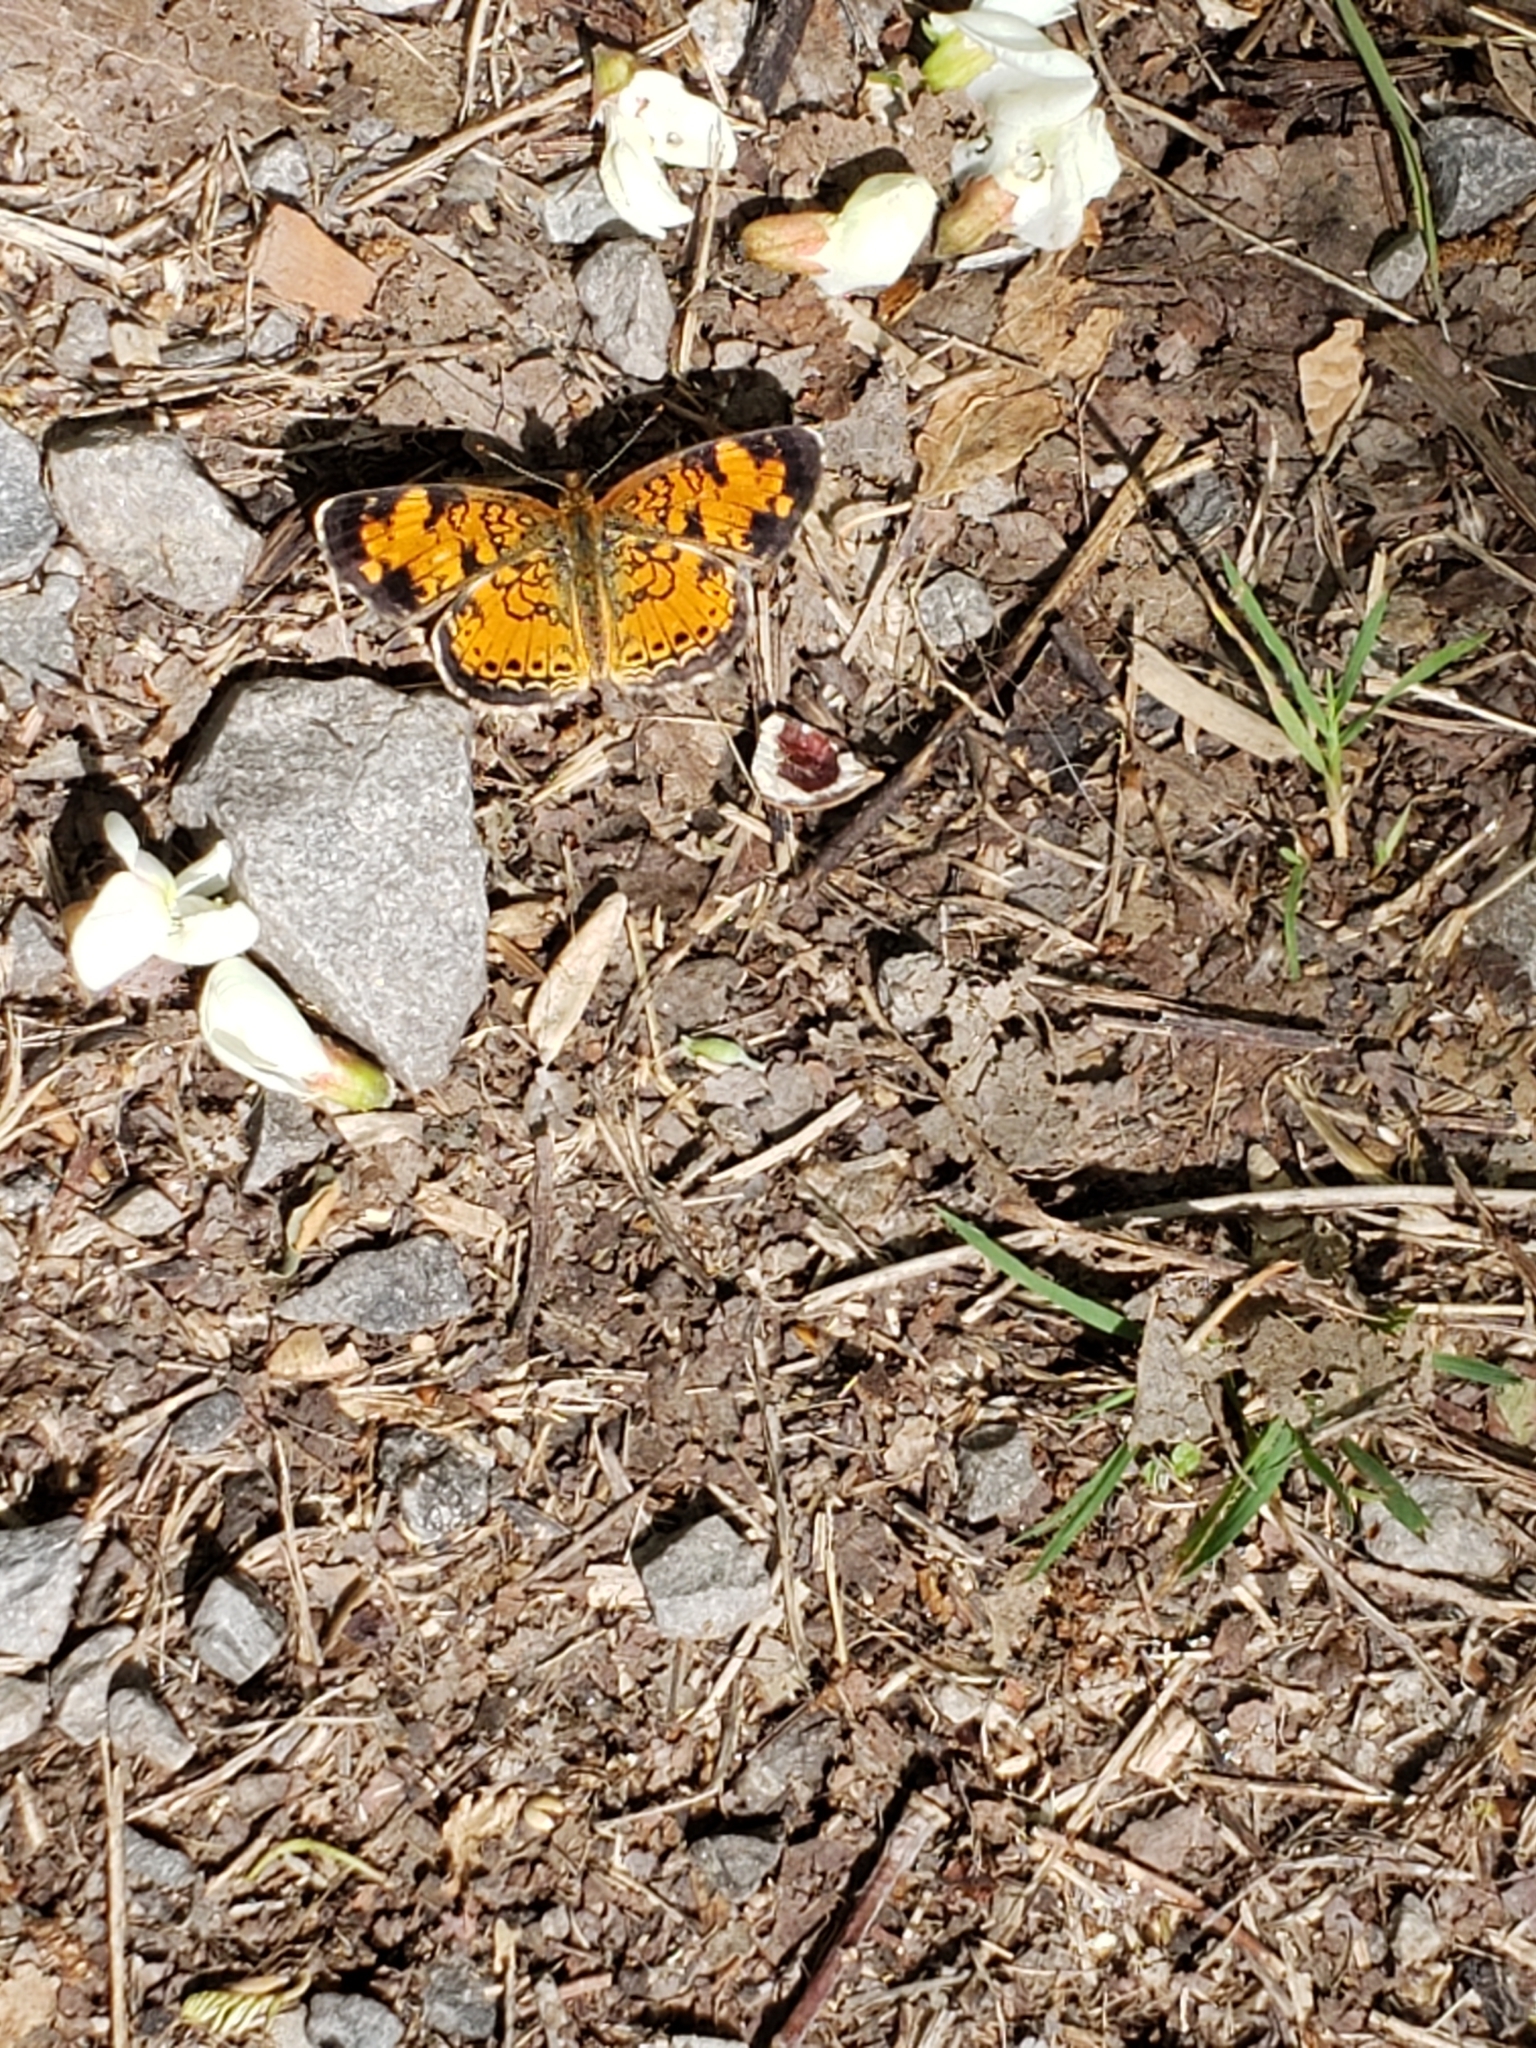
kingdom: Animalia
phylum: Arthropoda
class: Insecta
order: Lepidoptera
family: Nymphalidae
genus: Phyciodes
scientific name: Phyciodes tharos
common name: Pearl crescent
